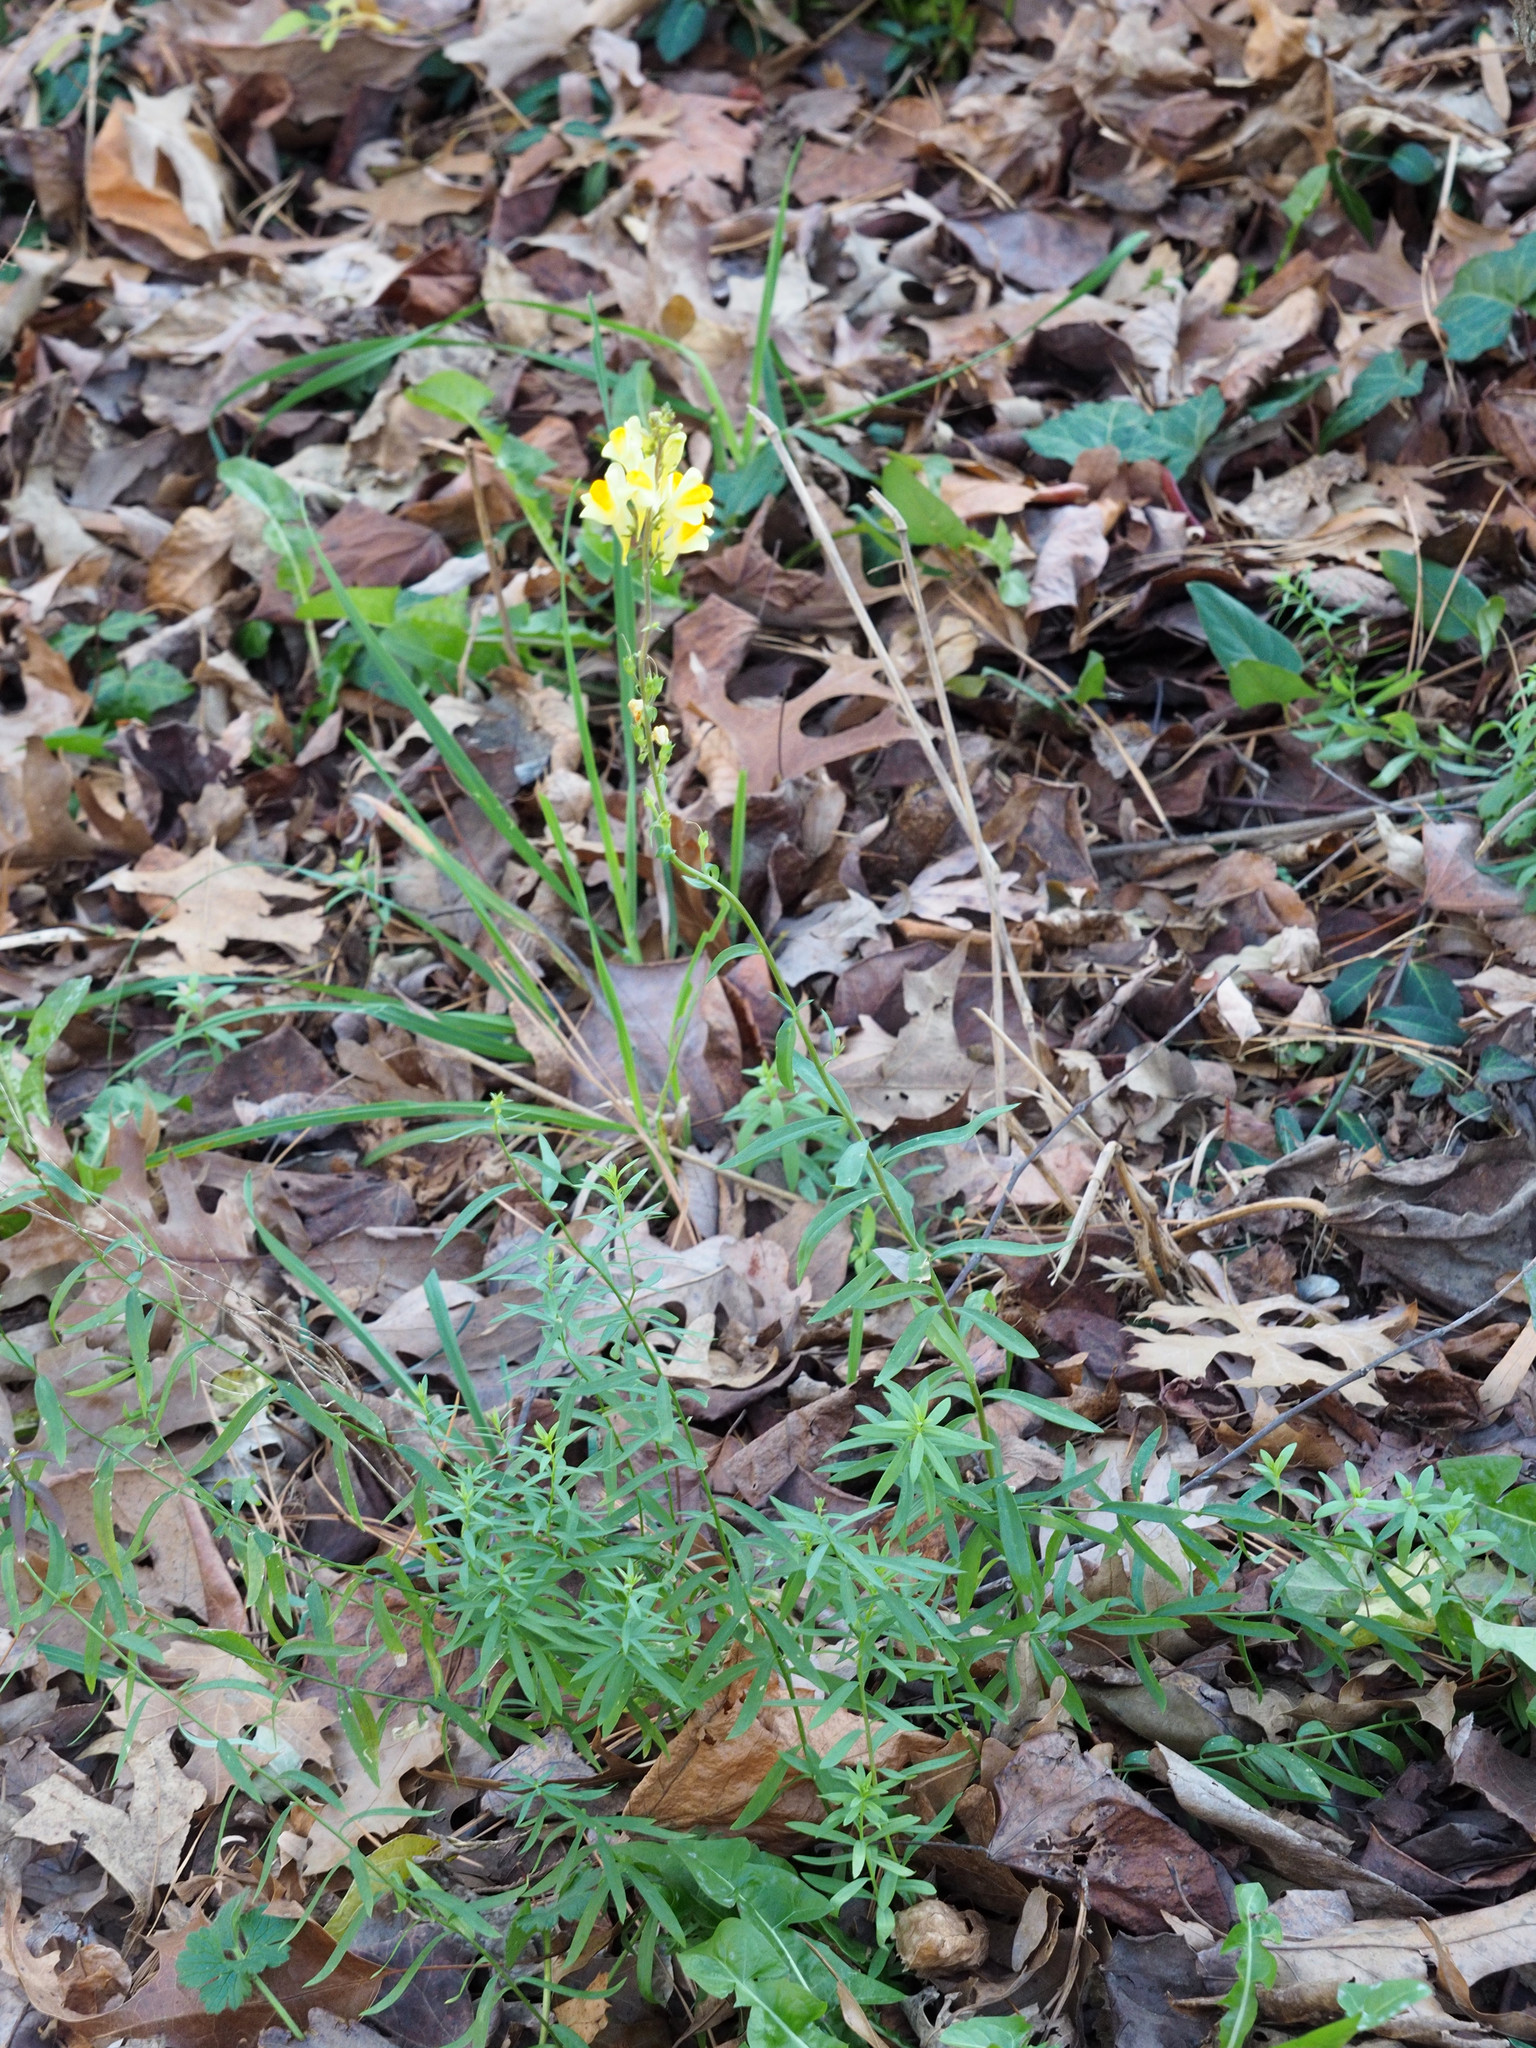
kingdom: Plantae
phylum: Tracheophyta
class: Magnoliopsida
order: Lamiales
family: Plantaginaceae
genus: Linaria
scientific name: Linaria vulgaris
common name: Butter and eggs
